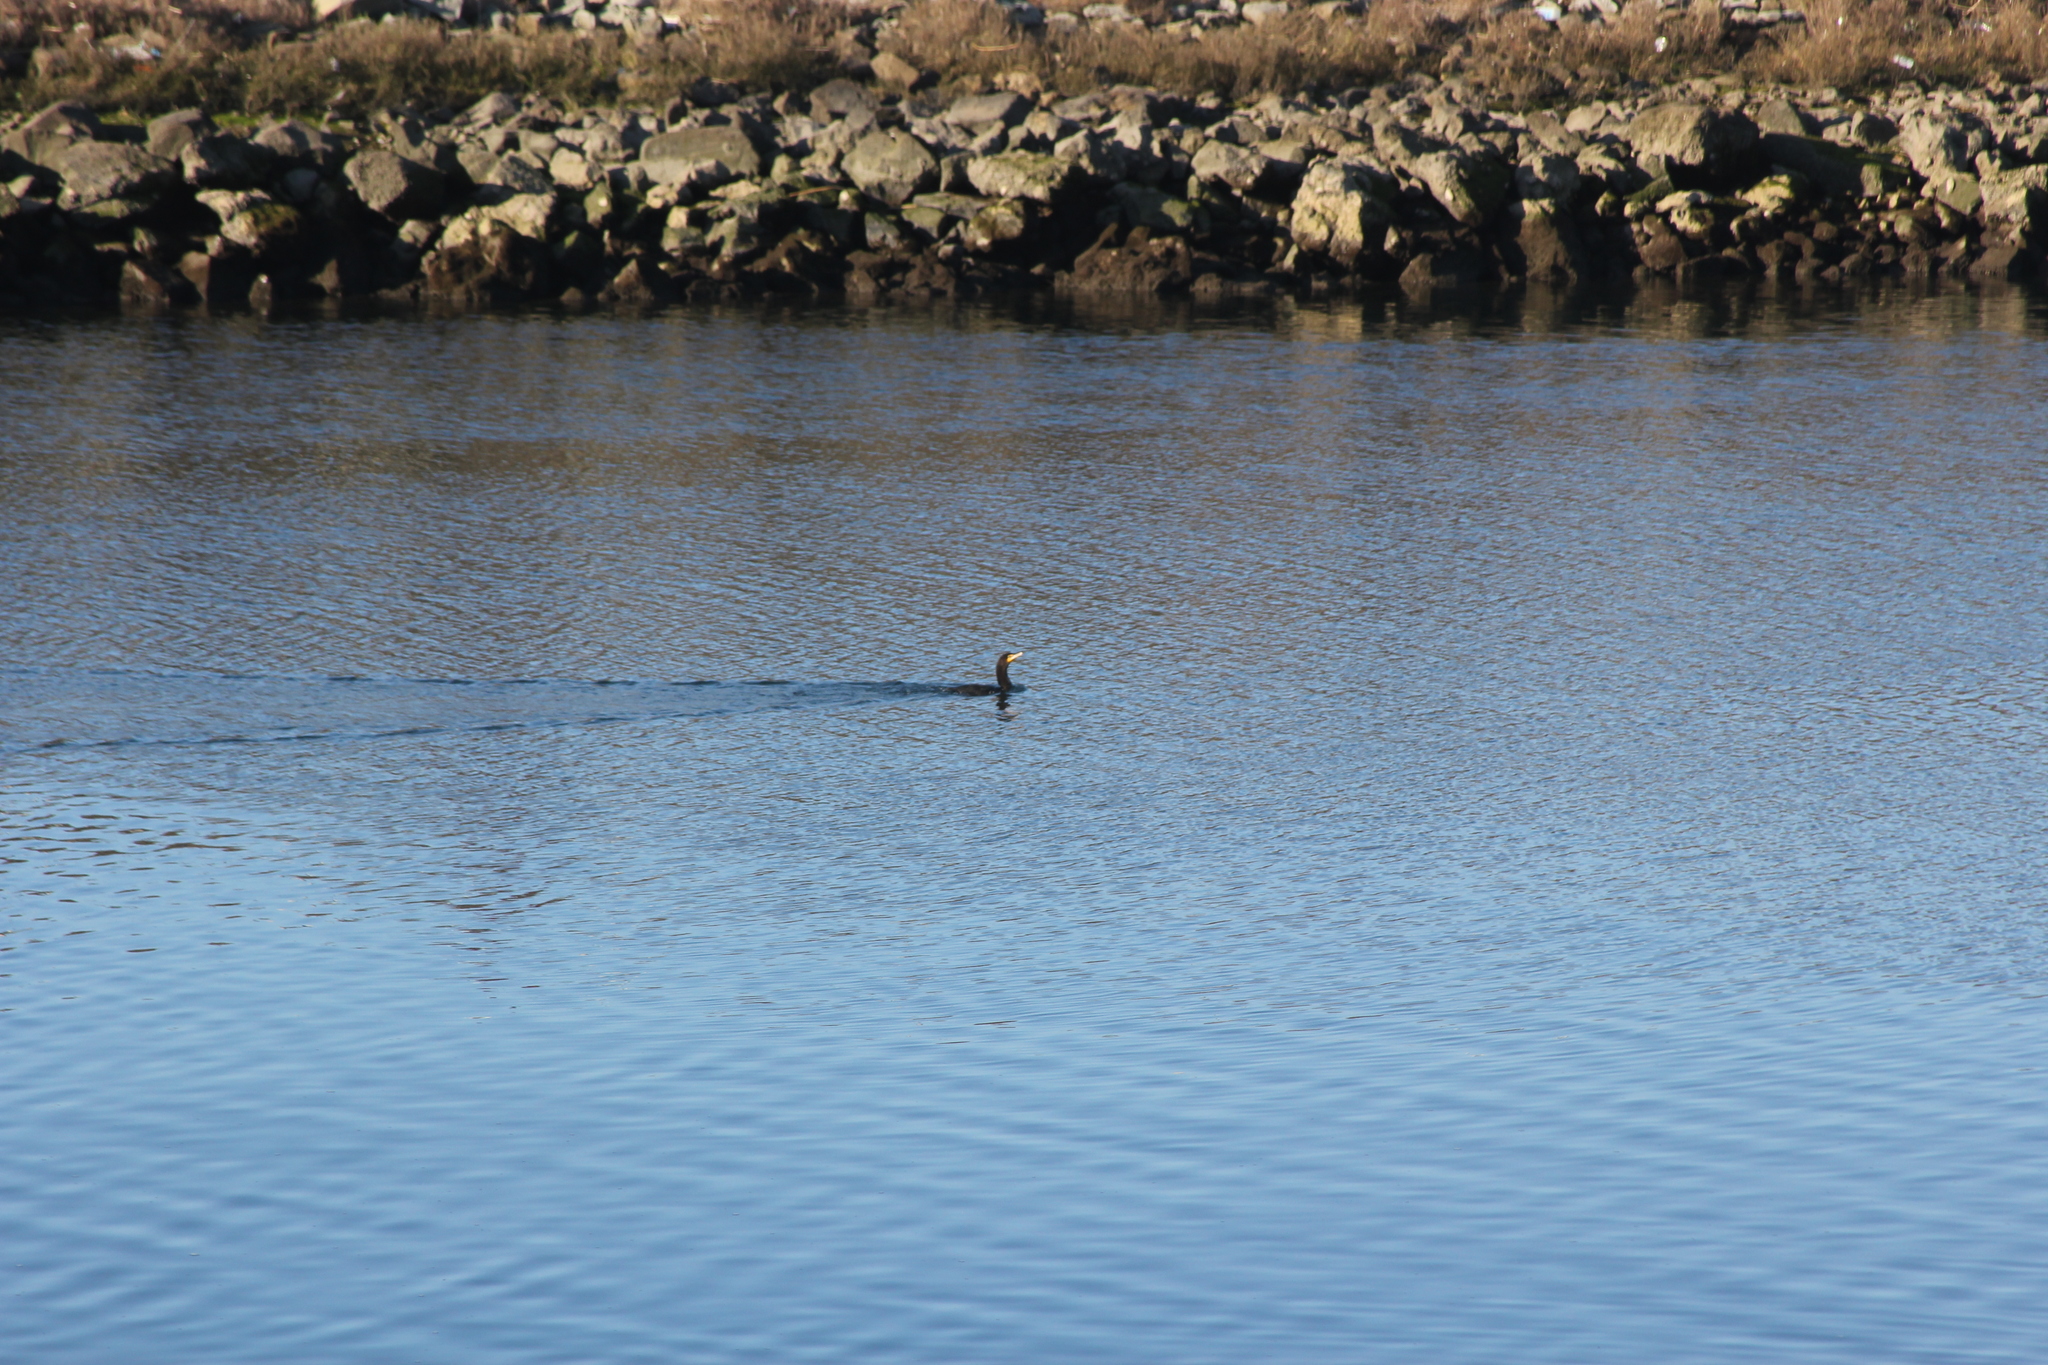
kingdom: Animalia
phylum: Chordata
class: Aves
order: Suliformes
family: Phalacrocoracidae
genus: Phalacrocorax
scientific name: Phalacrocorax auritus
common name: Double-crested cormorant
